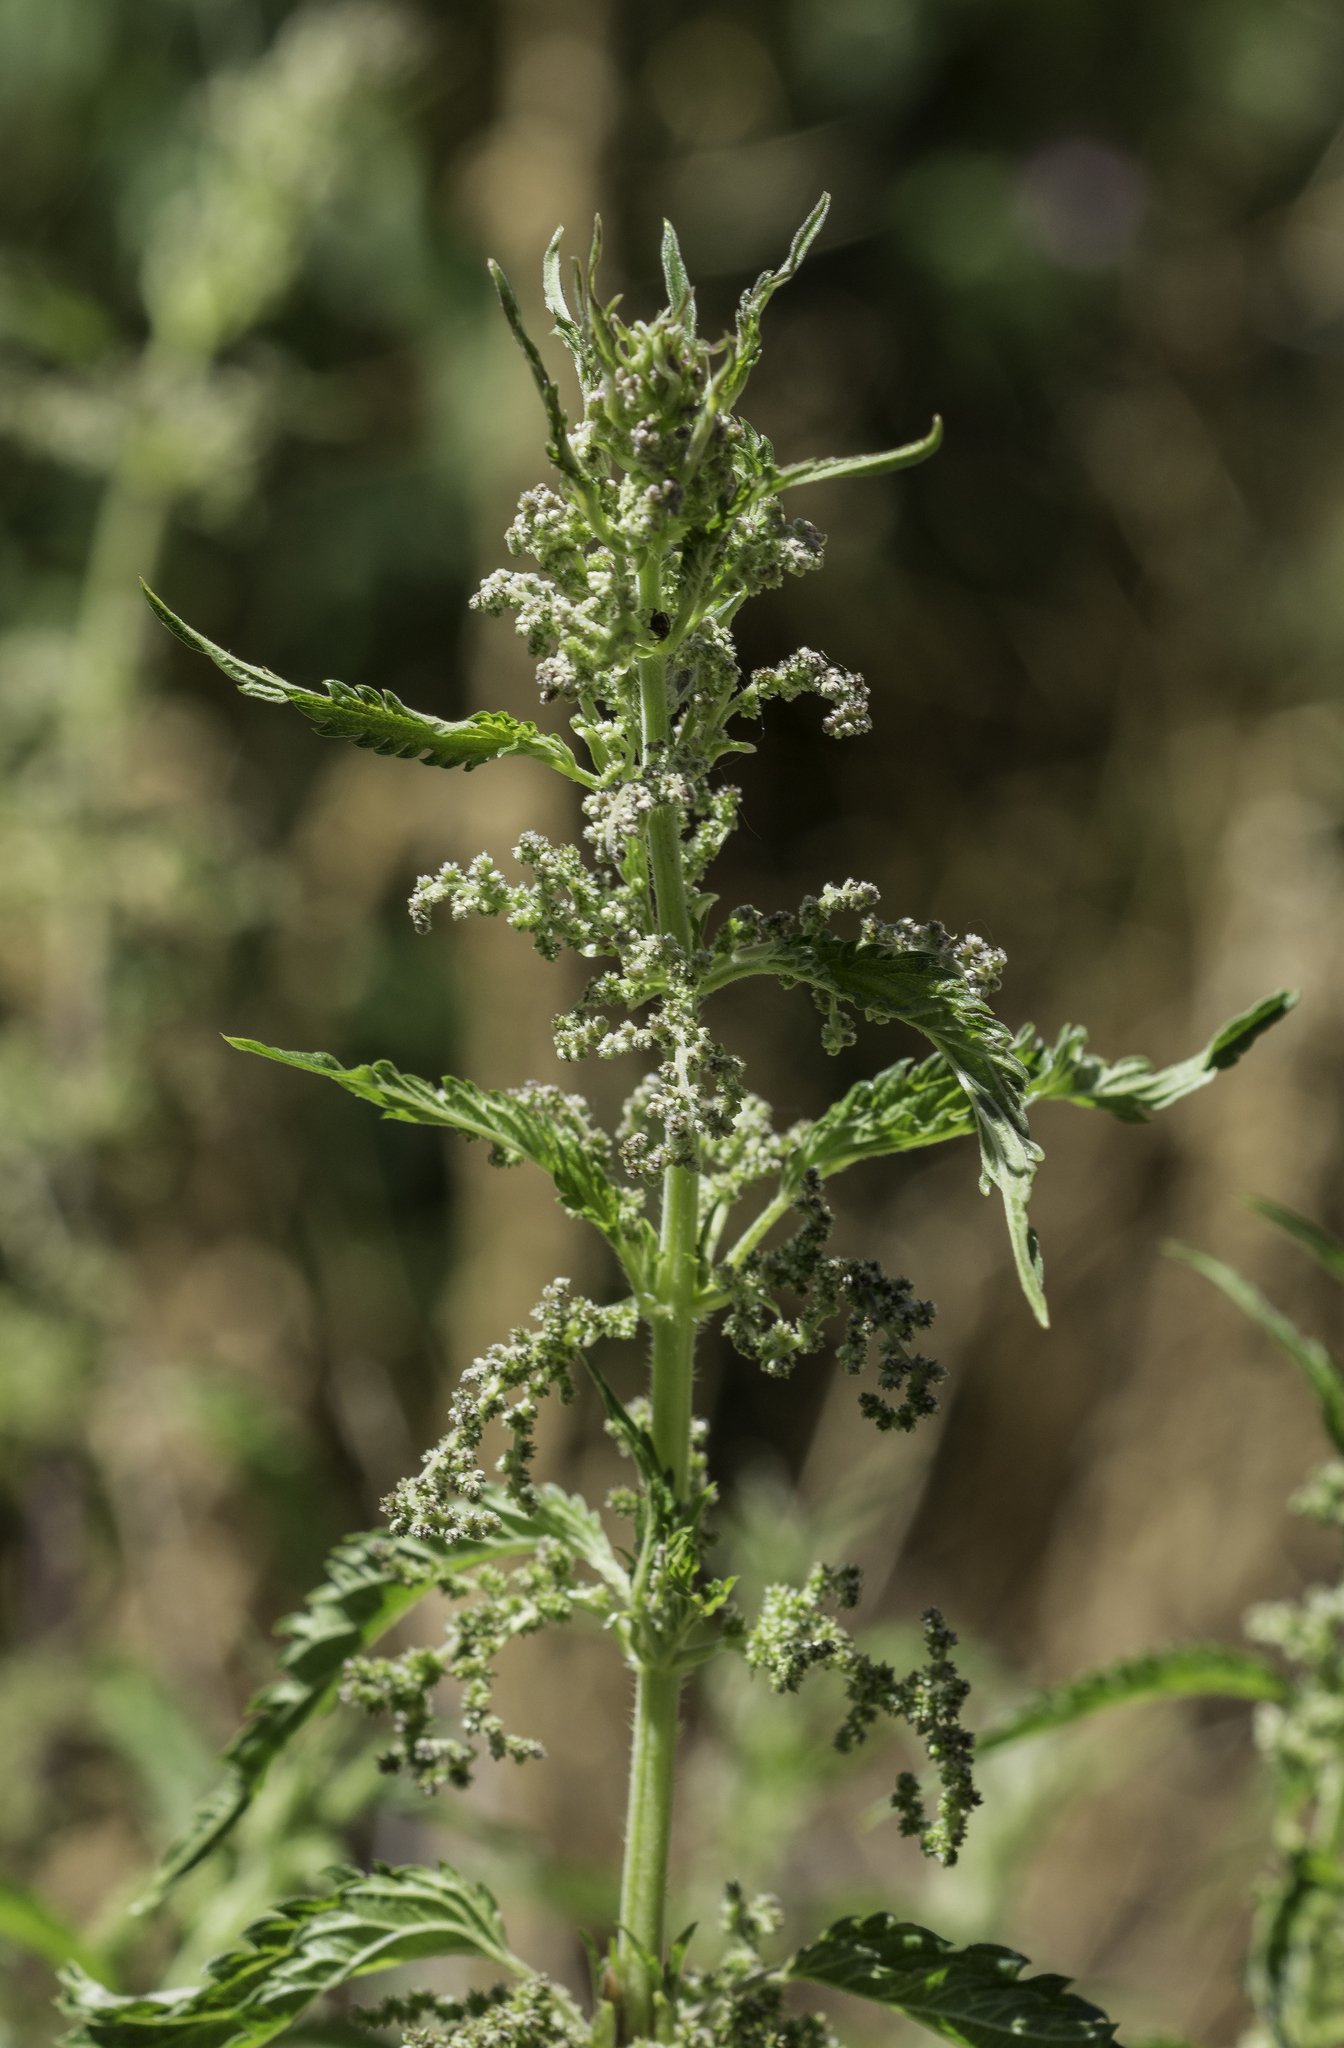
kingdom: Plantae
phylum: Tracheophyta
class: Magnoliopsida
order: Rosales
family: Urticaceae
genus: Urtica
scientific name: Urtica gracilis
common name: Slender stinging nettle
